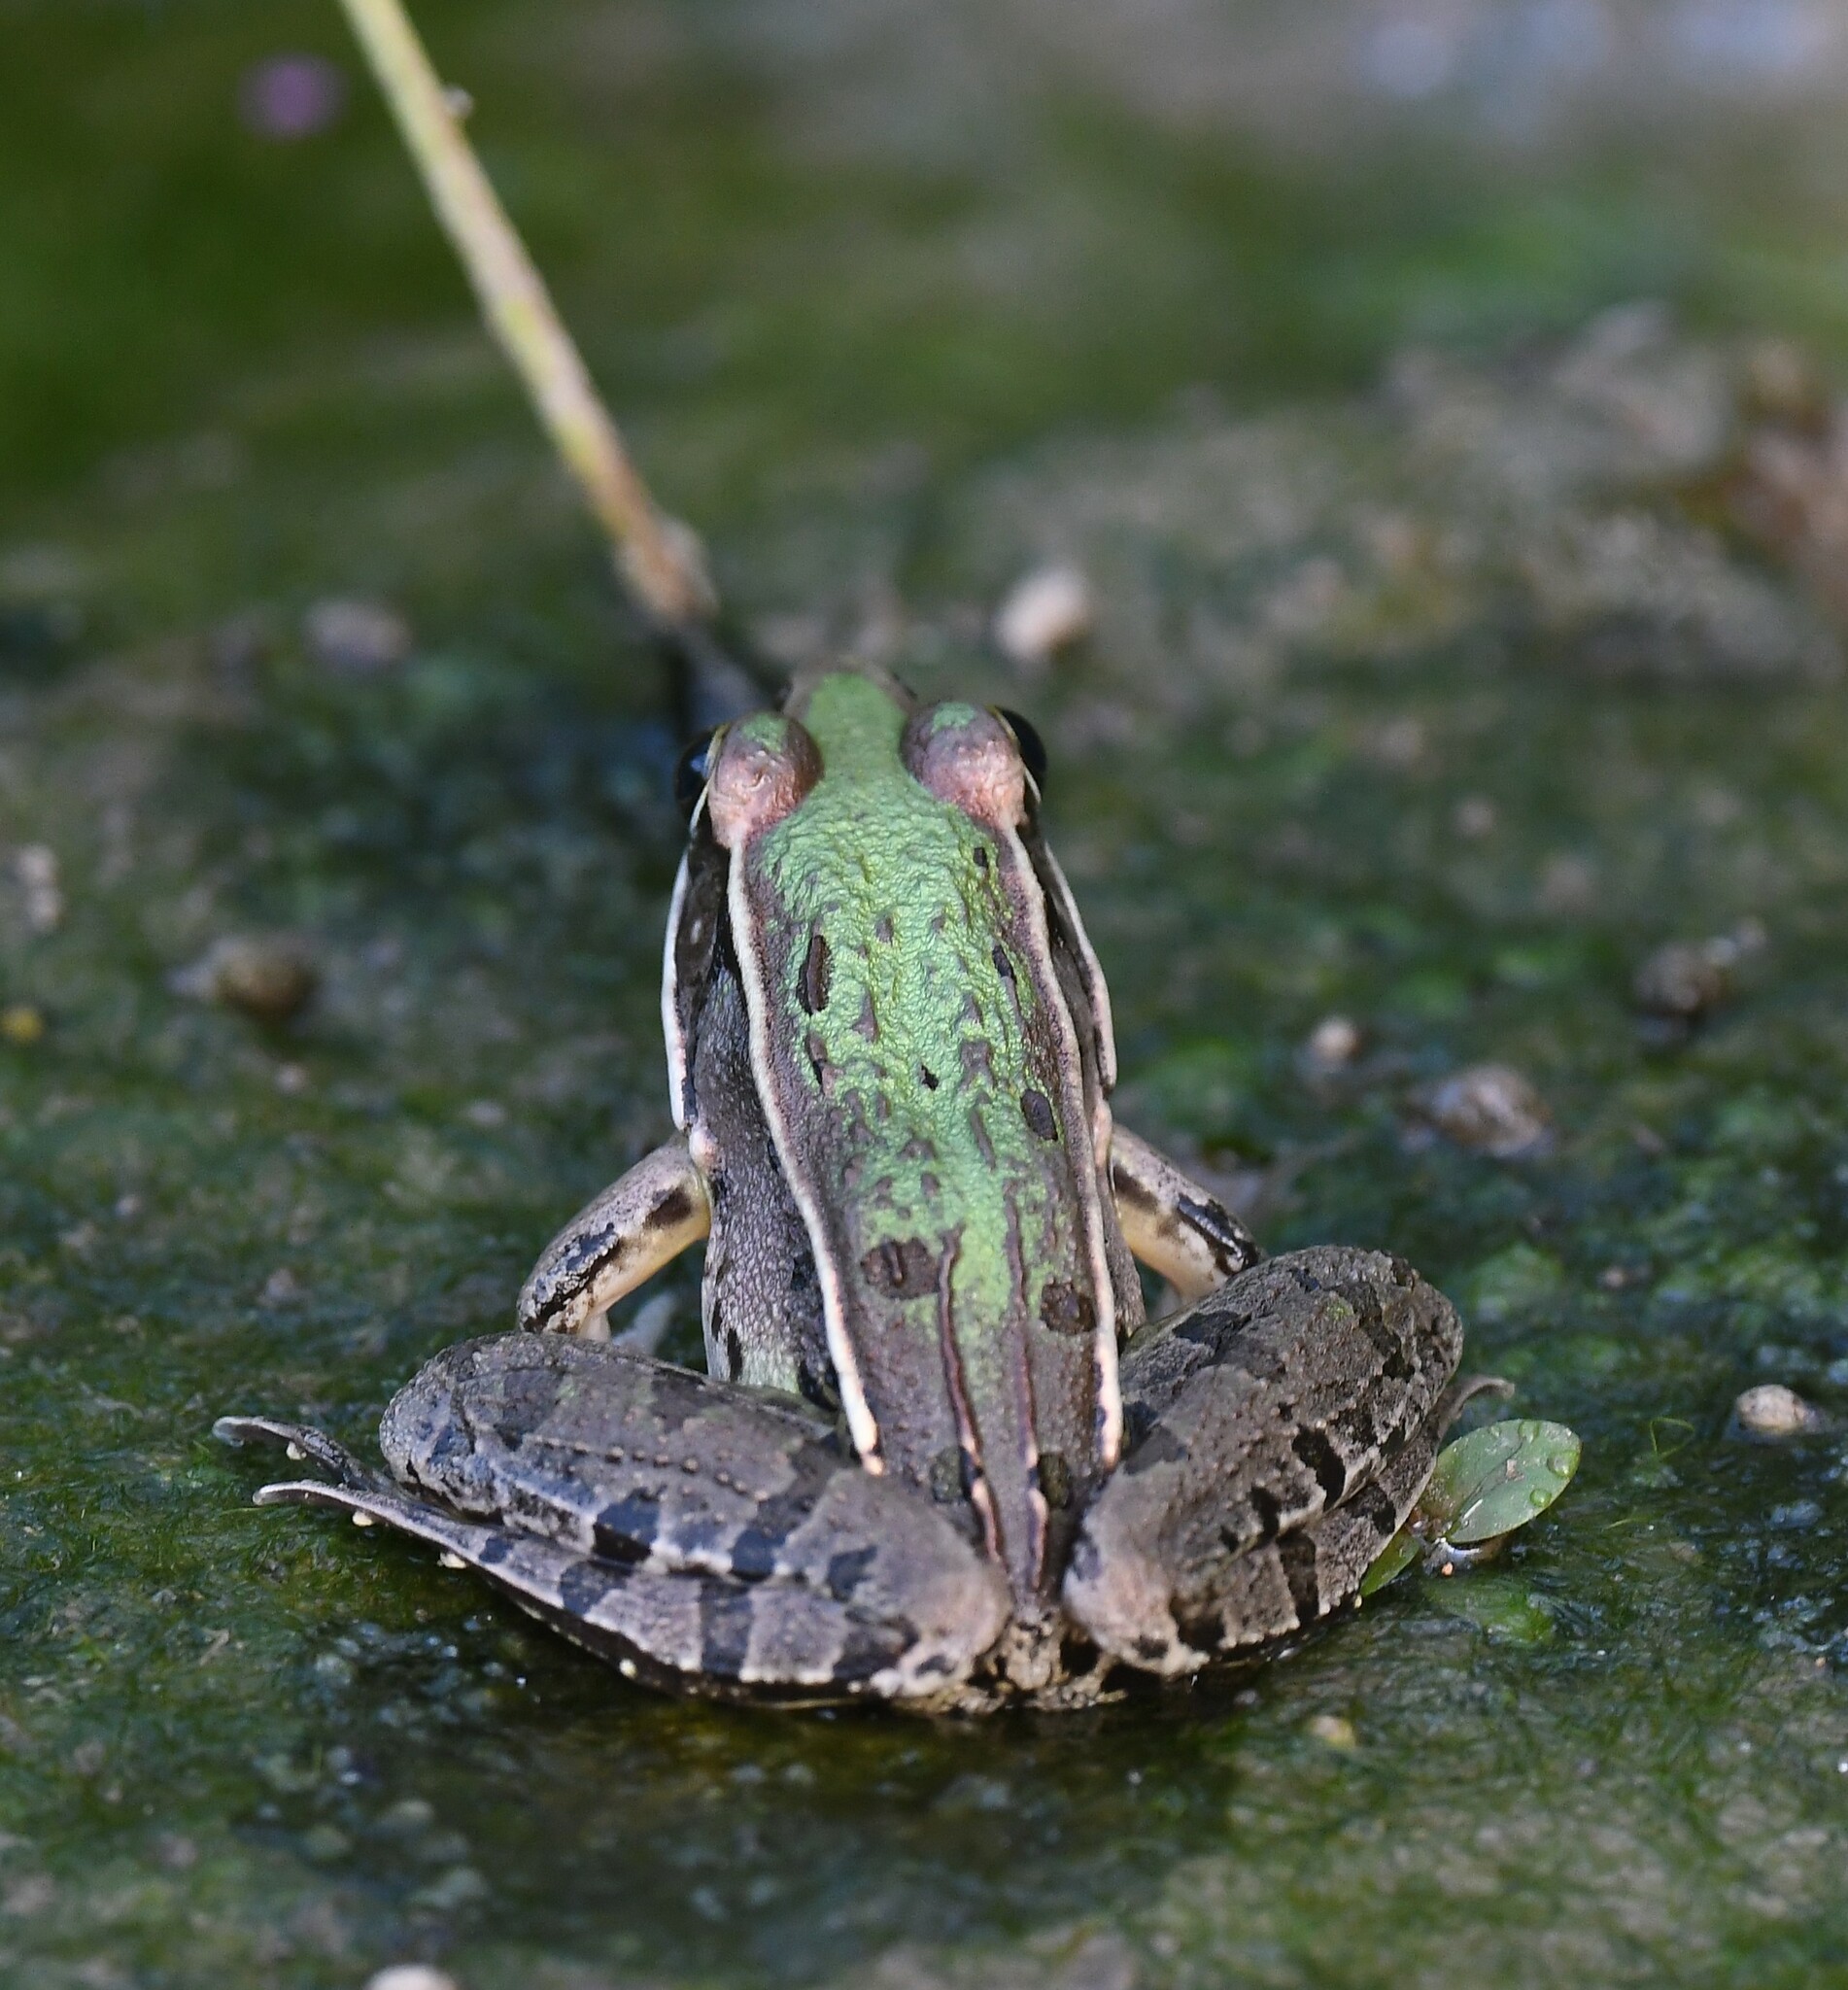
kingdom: Animalia
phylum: Chordata
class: Amphibia
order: Anura
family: Ranidae
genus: Lithobates
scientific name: Lithobates sphenocephalus
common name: Southern leopard frog
